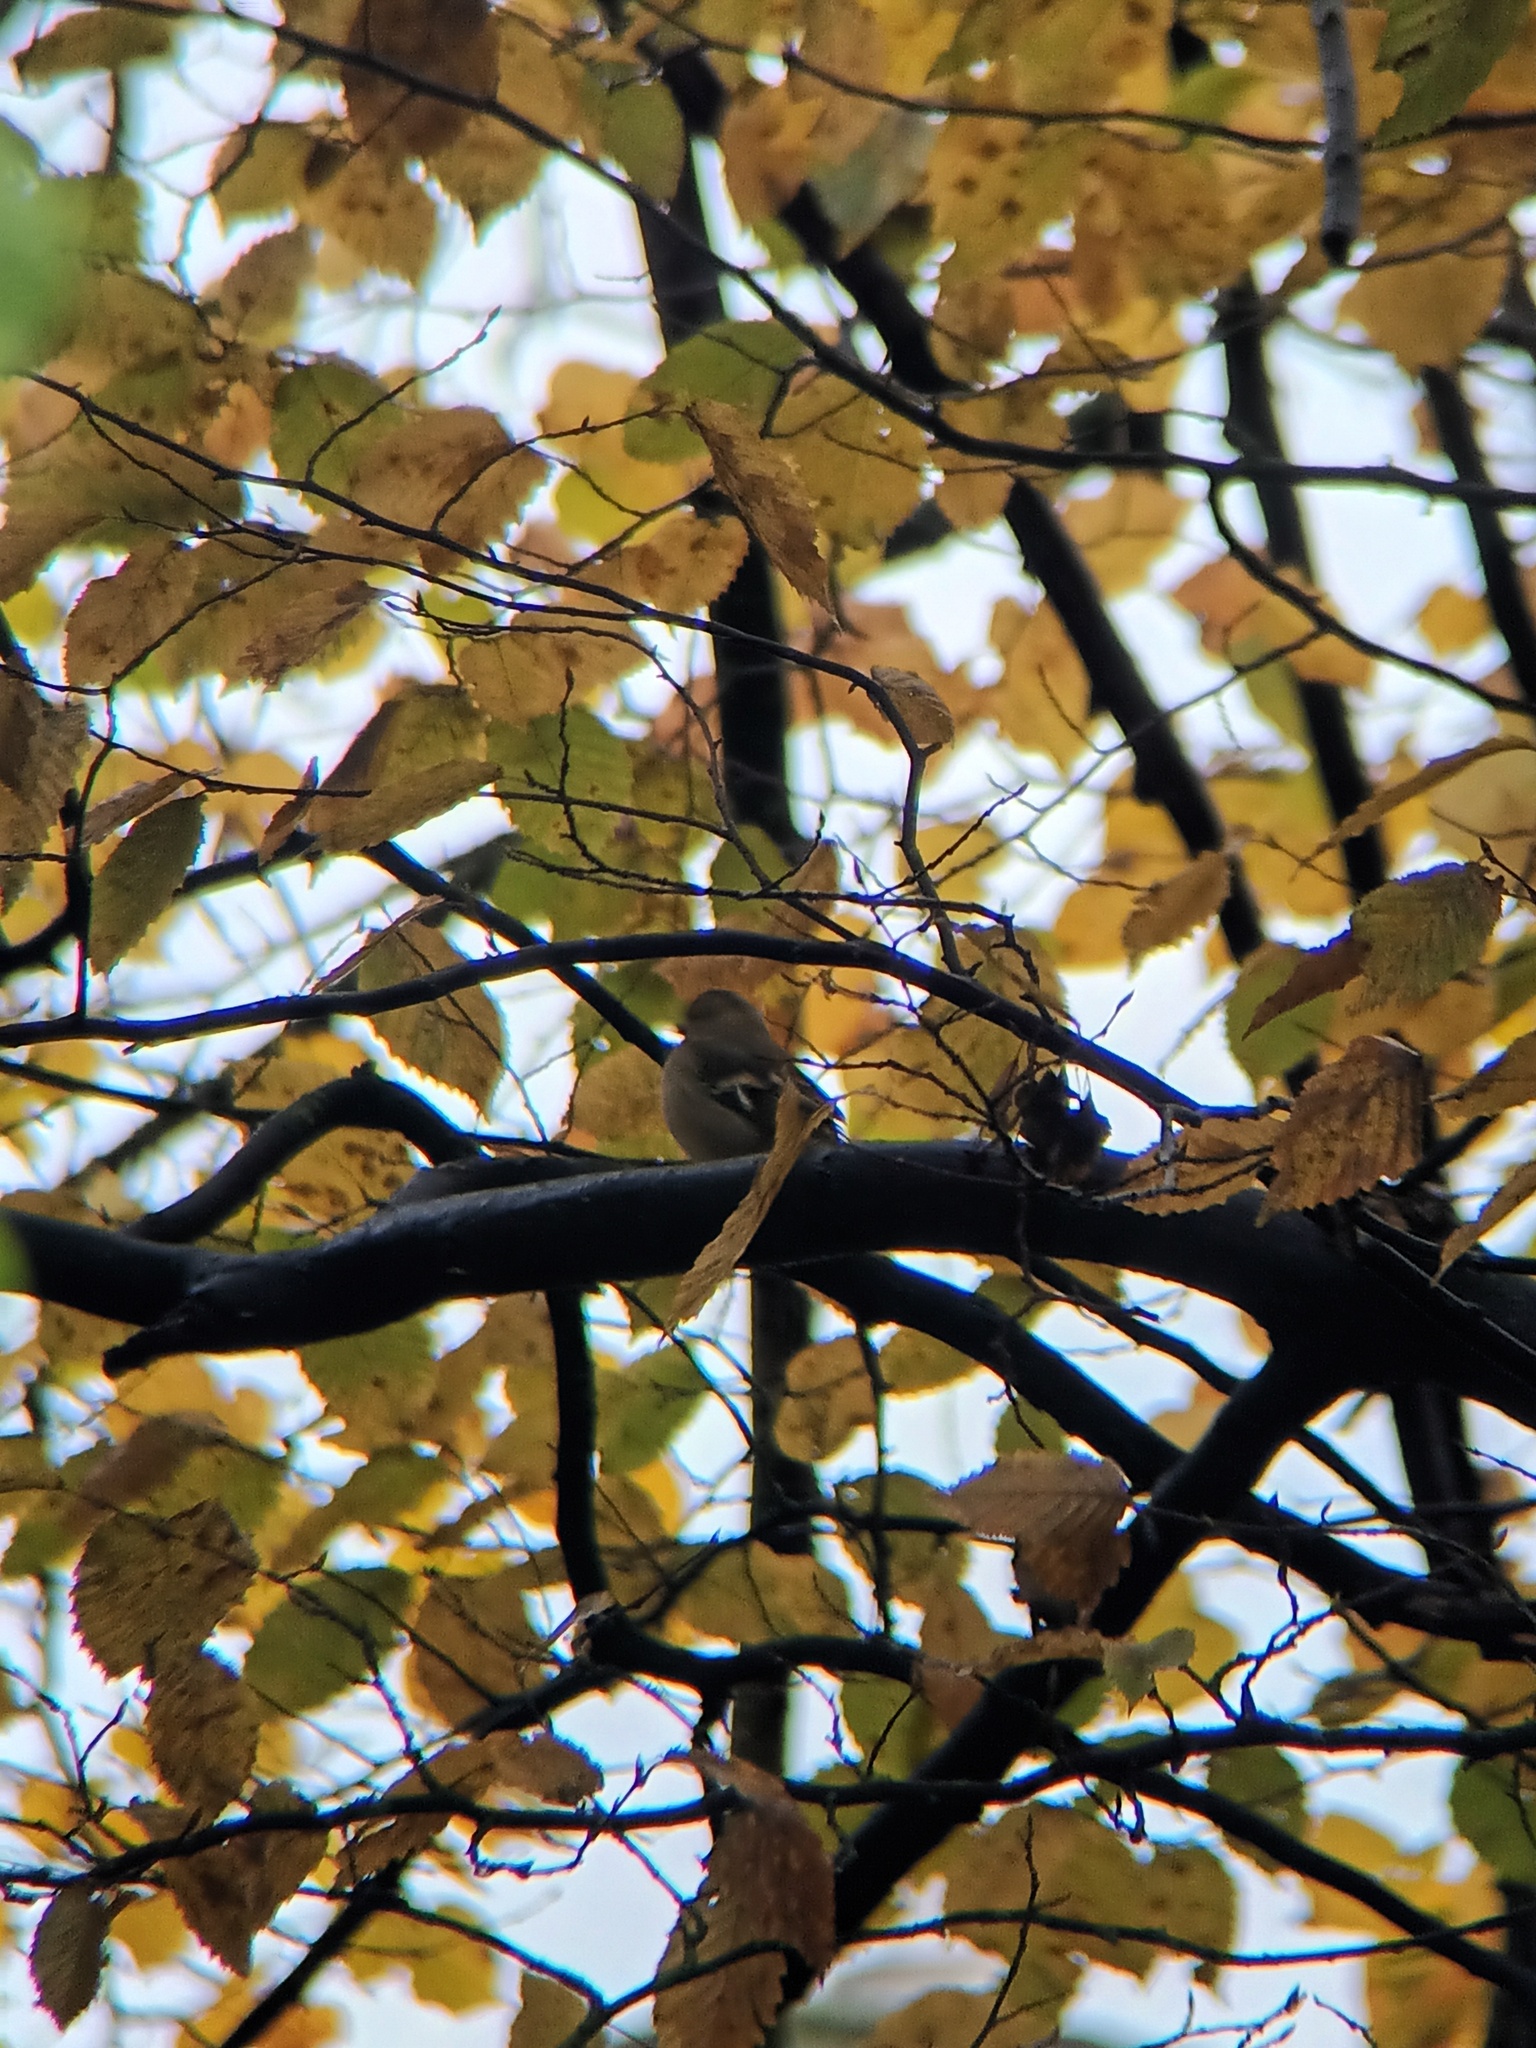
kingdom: Animalia
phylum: Chordata
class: Aves
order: Passeriformes
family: Fringillidae
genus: Fringilla
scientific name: Fringilla coelebs
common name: Common chaffinch
